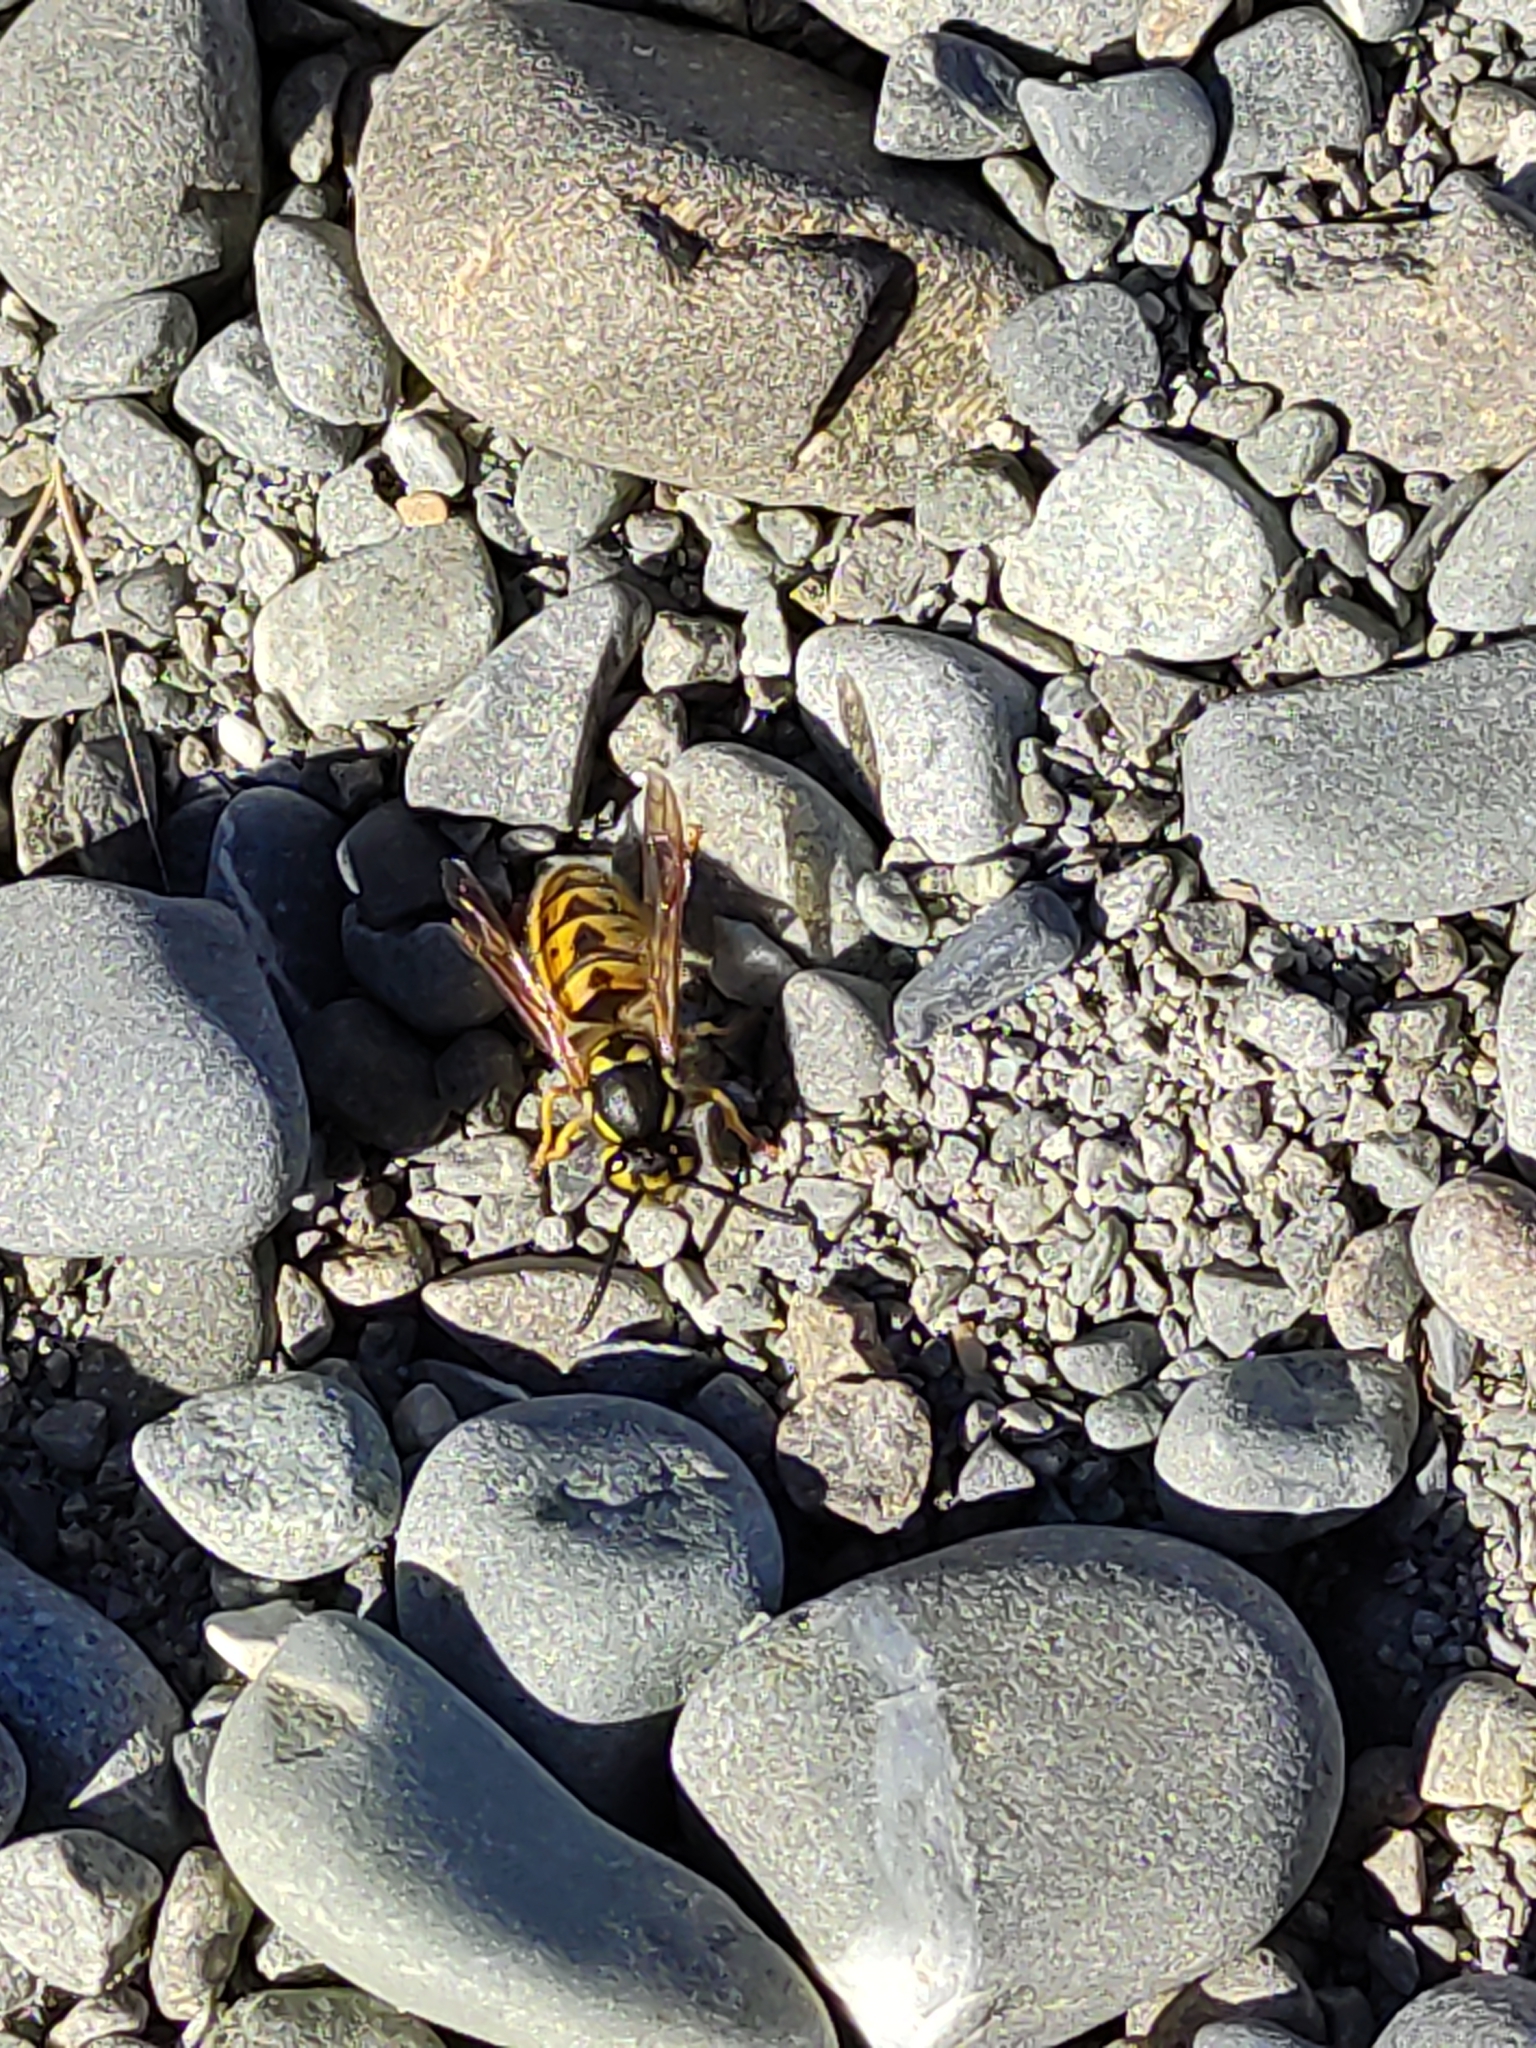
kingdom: Animalia
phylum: Arthropoda
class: Insecta
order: Hymenoptera
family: Vespidae
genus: Vespula
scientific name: Vespula germanica
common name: German wasp
